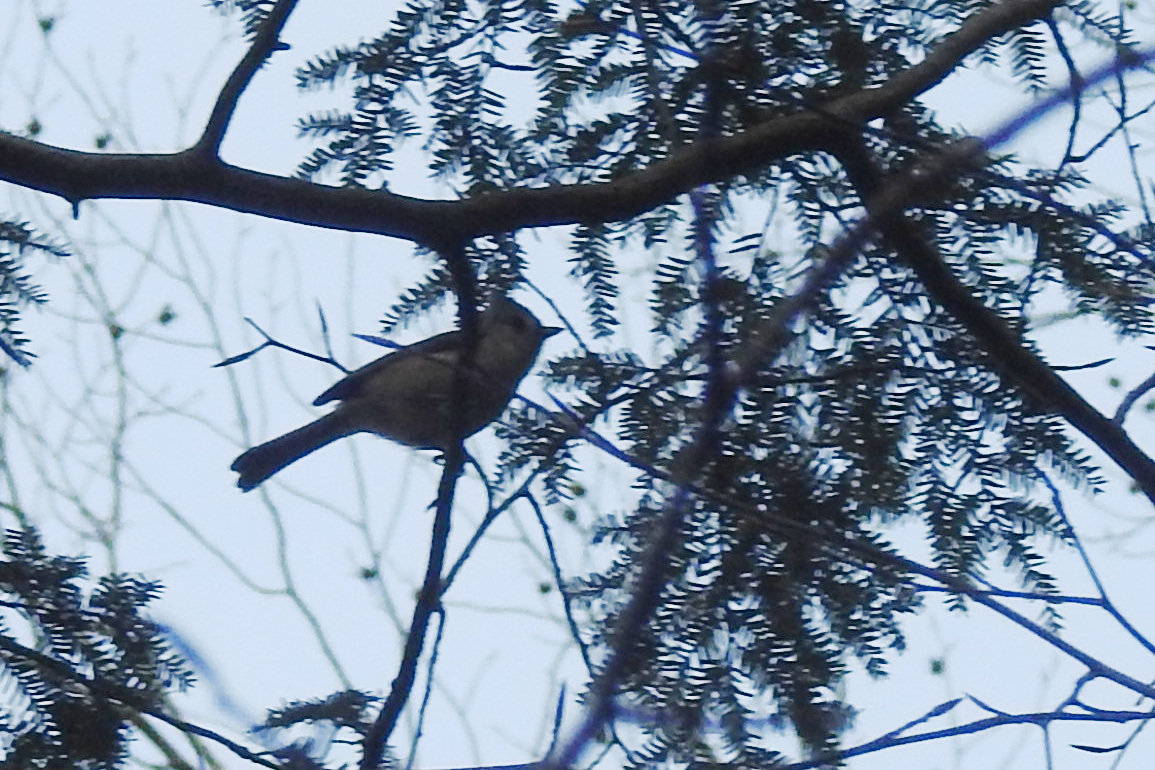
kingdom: Animalia
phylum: Chordata
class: Aves
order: Passeriformes
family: Paridae
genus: Baeolophus
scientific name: Baeolophus bicolor
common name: Tufted titmouse
